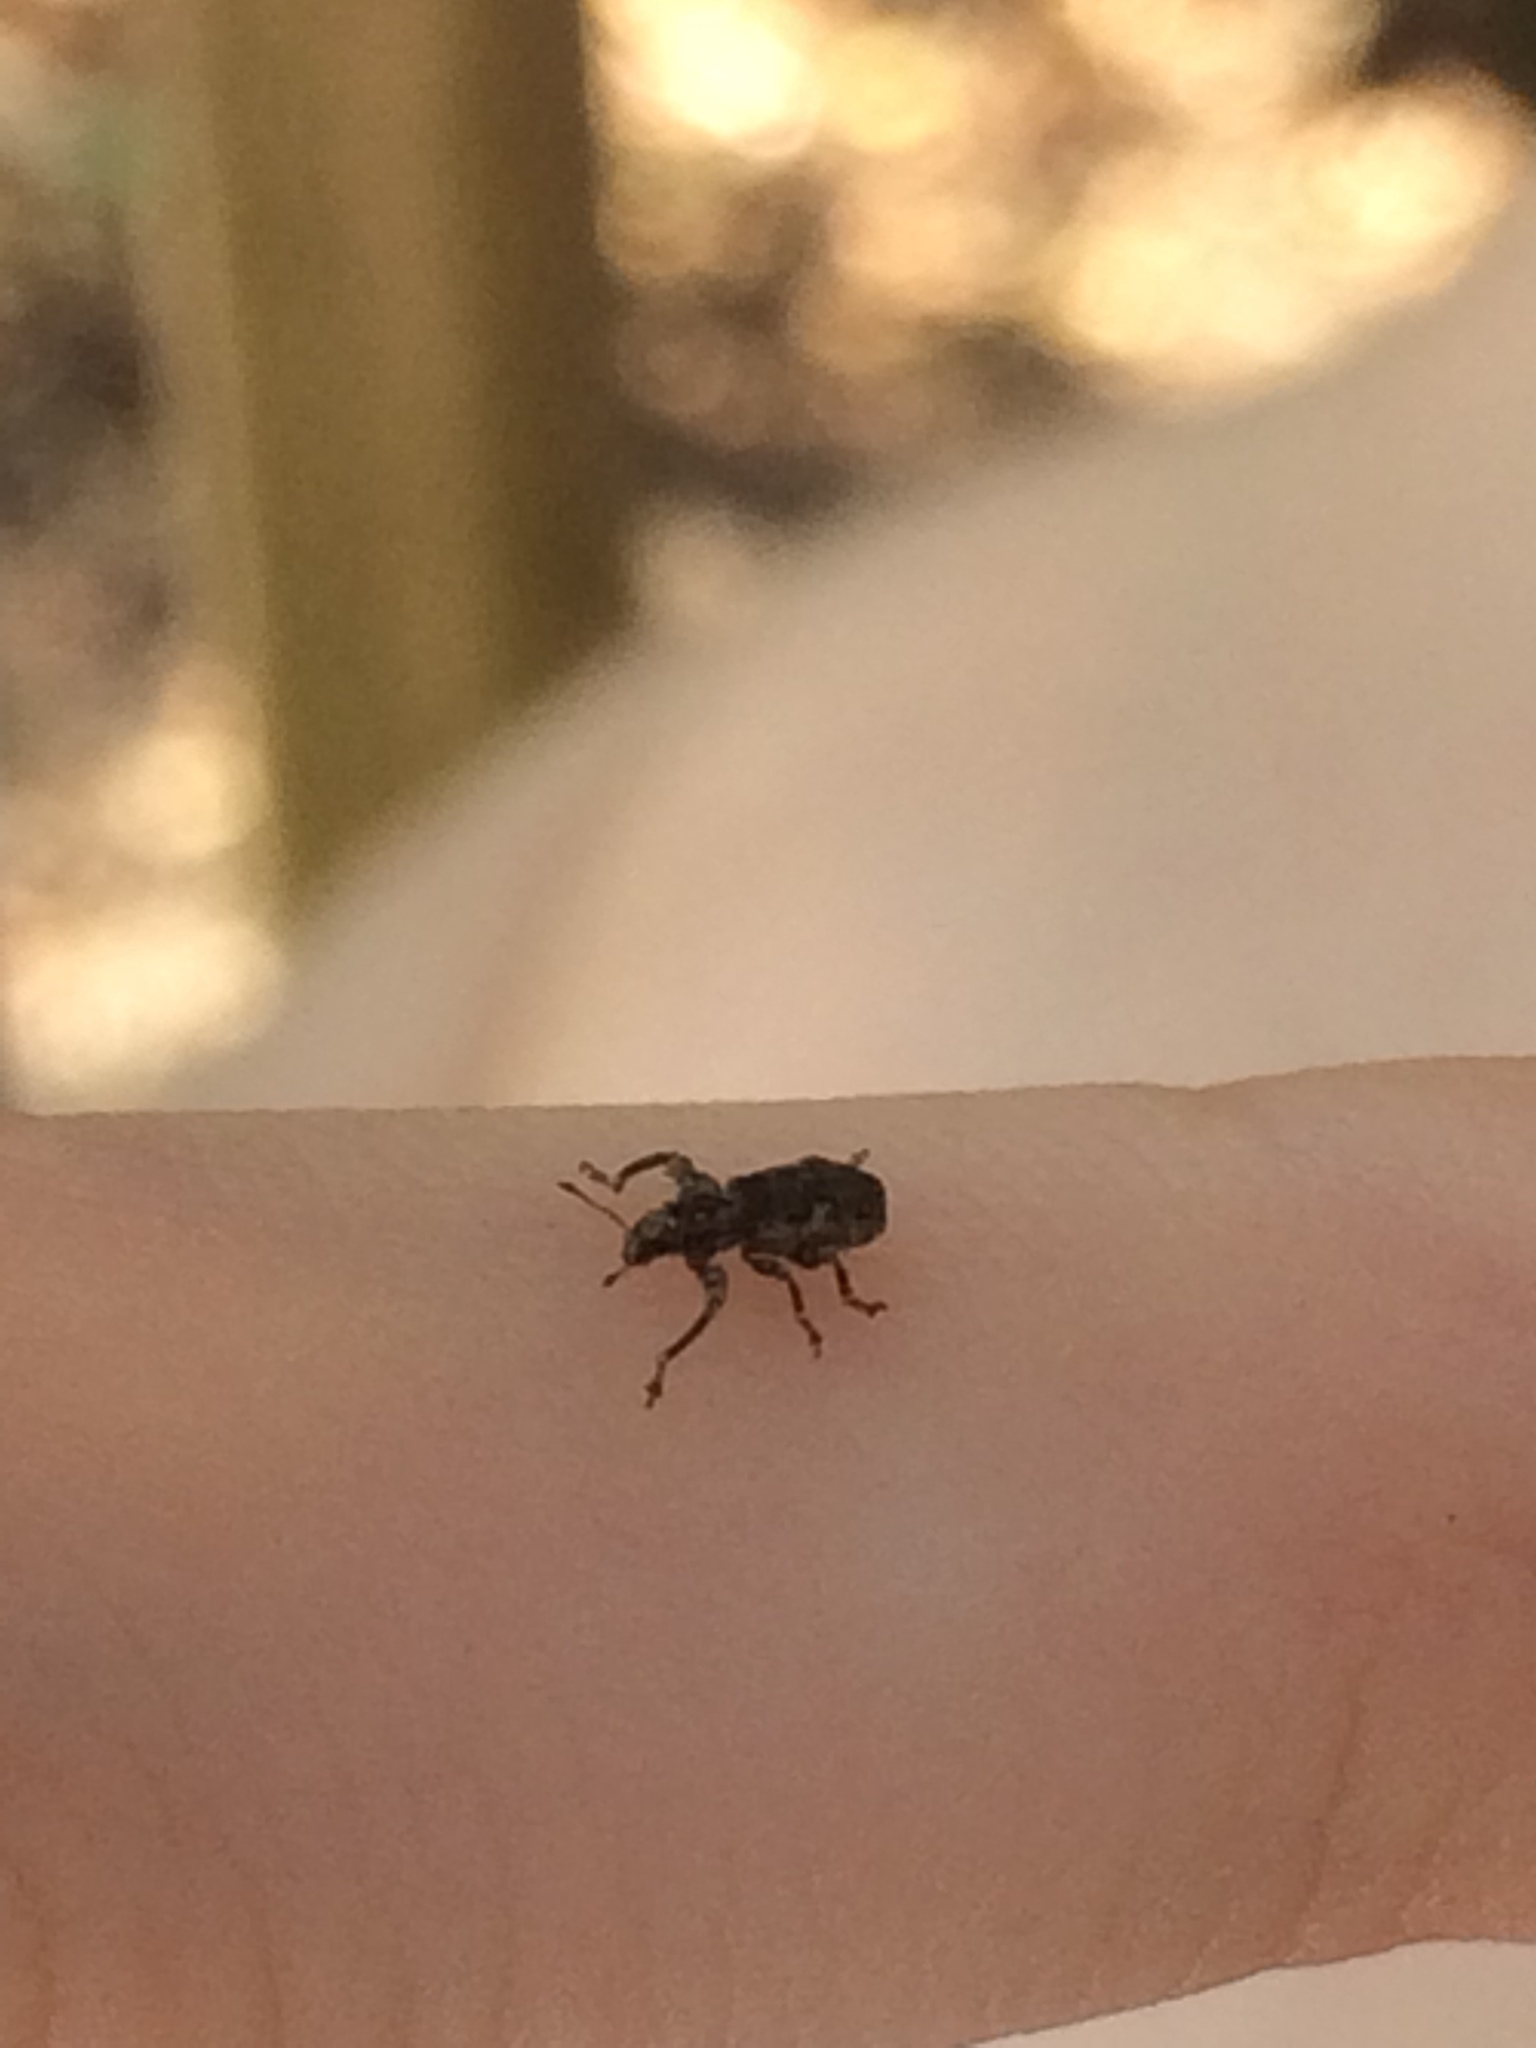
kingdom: Animalia
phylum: Arthropoda
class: Insecta
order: Coleoptera
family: Curculionidae
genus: Pandeleteius
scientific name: Pandeleteius hilaris
